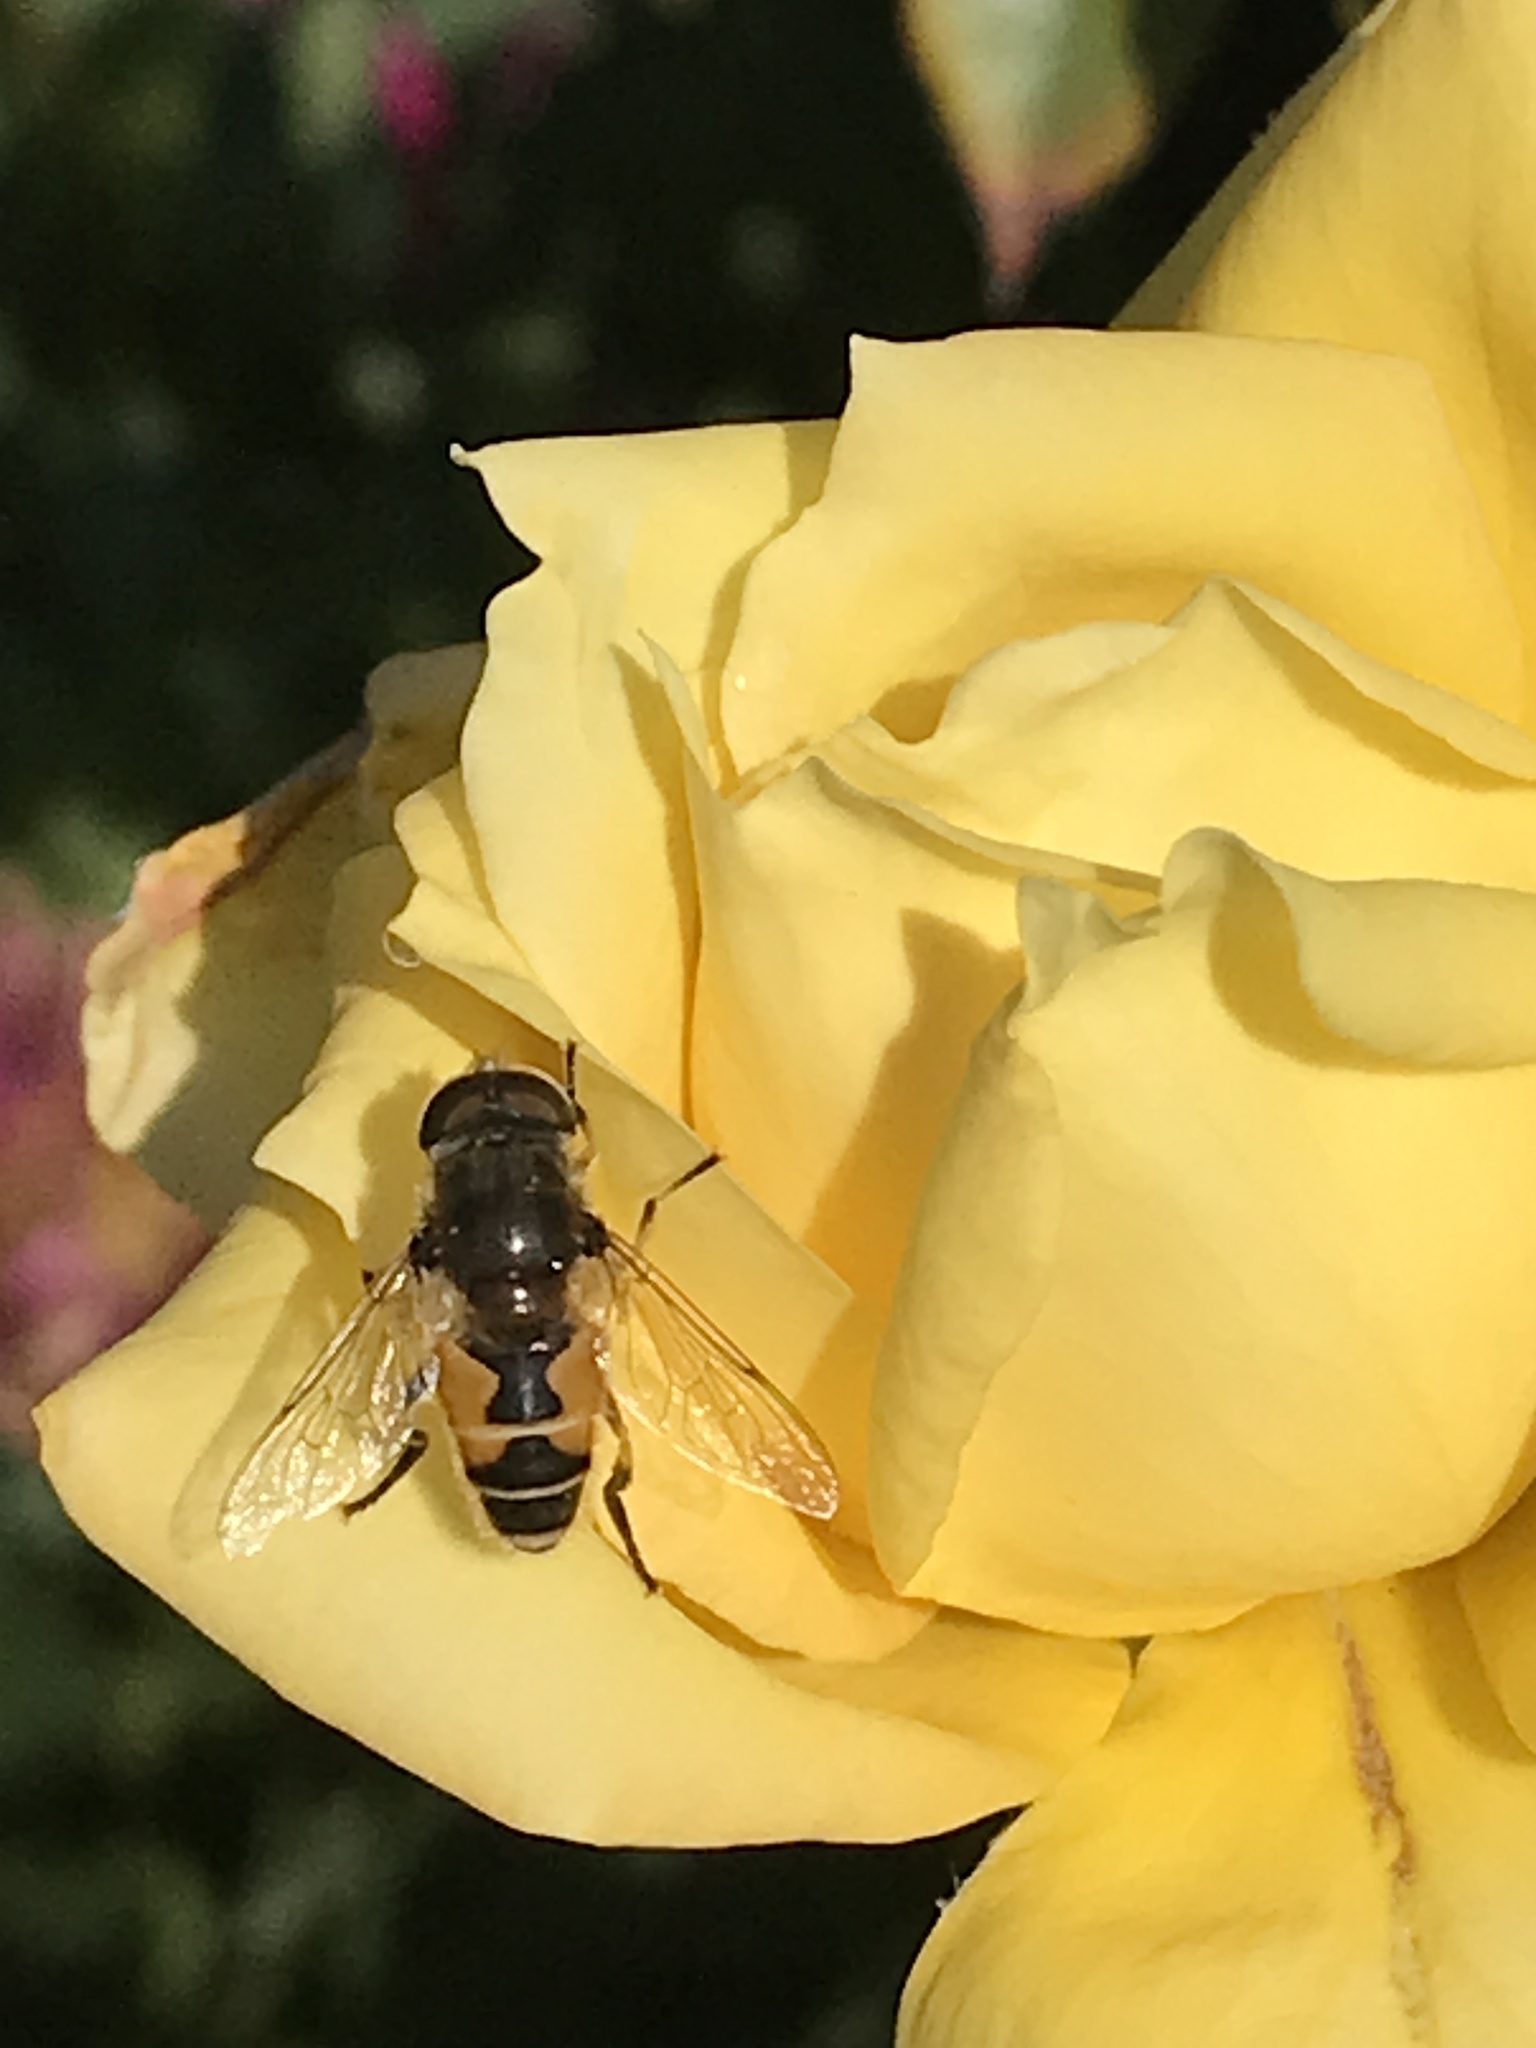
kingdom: Animalia
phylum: Arthropoda
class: Insecta
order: Diptera
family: Syrphidae
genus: Eristalis
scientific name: Eristalis arbustorum
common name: Hover fly
